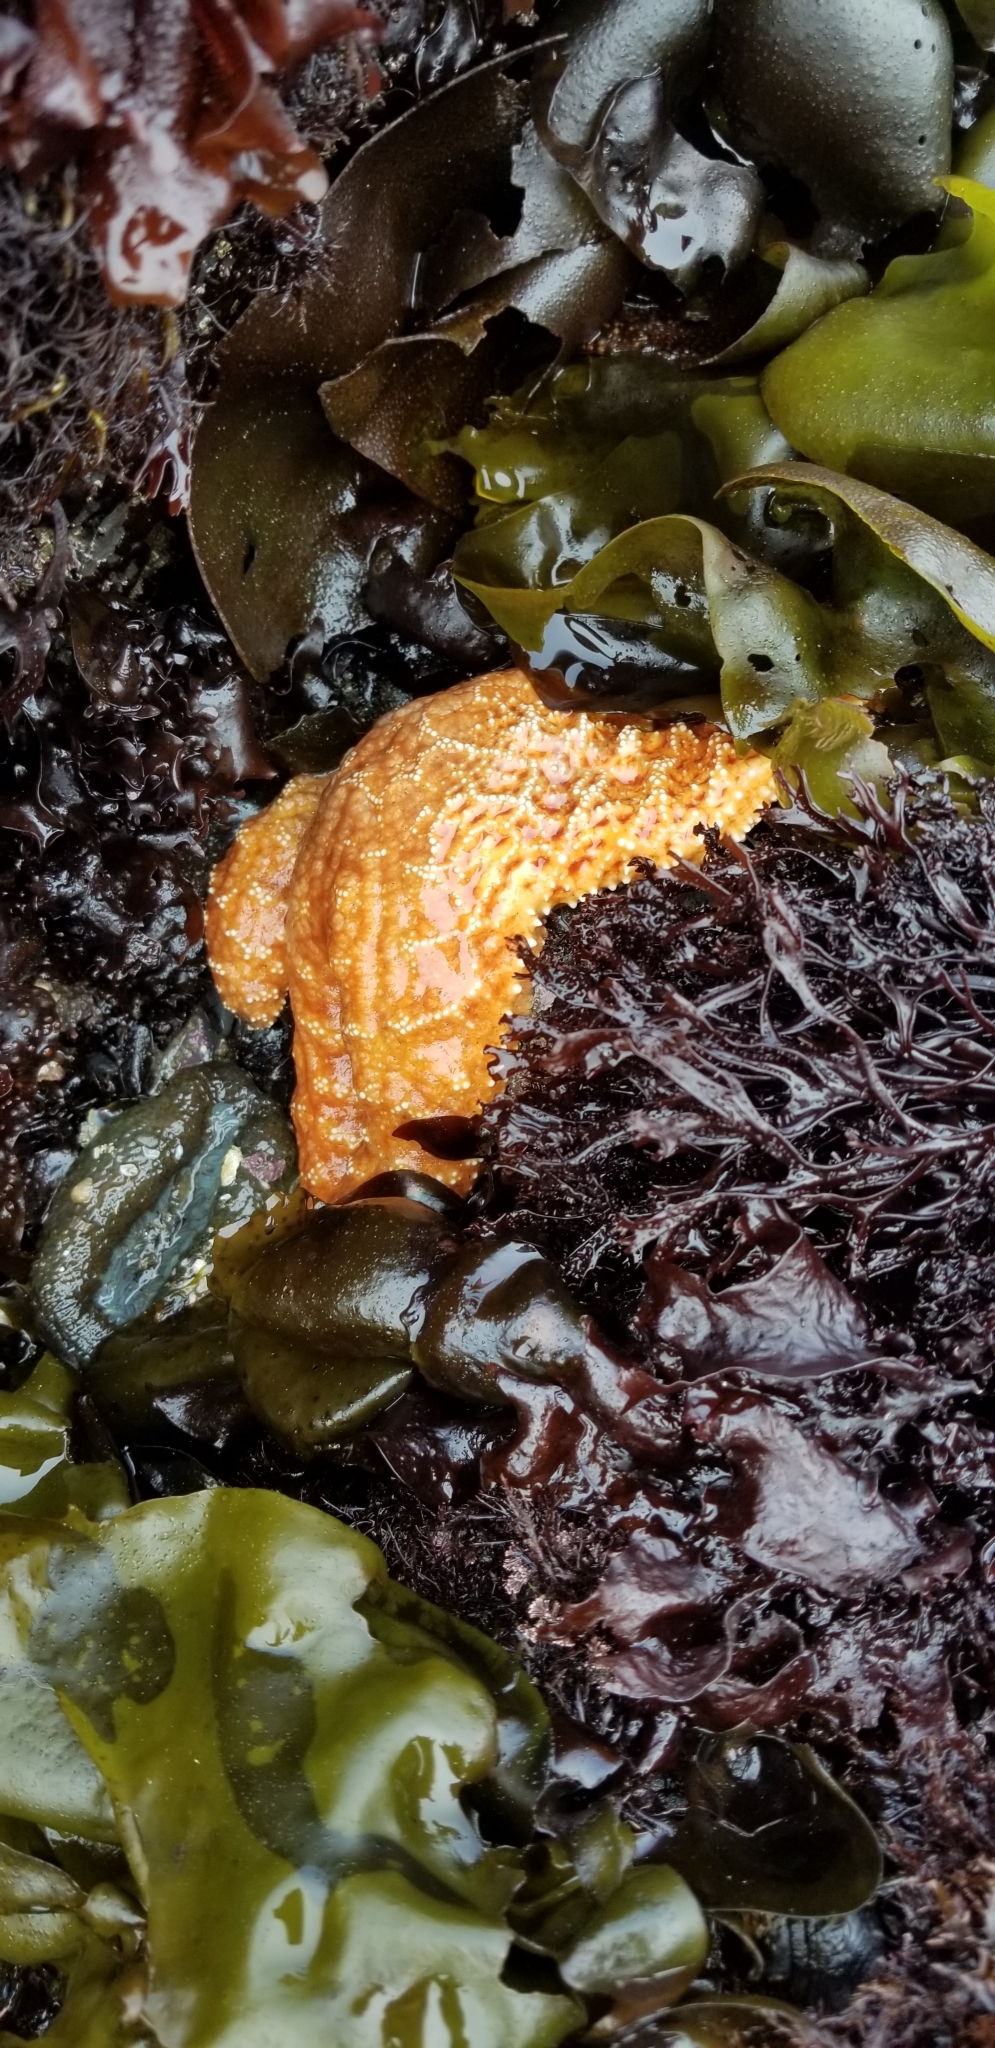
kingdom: Animalia
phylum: Echinodermata
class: Asteroidea
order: Forcipulatida
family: Asteriidae
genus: Pisaster
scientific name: Pisaster ochraceus
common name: Ochre stars
